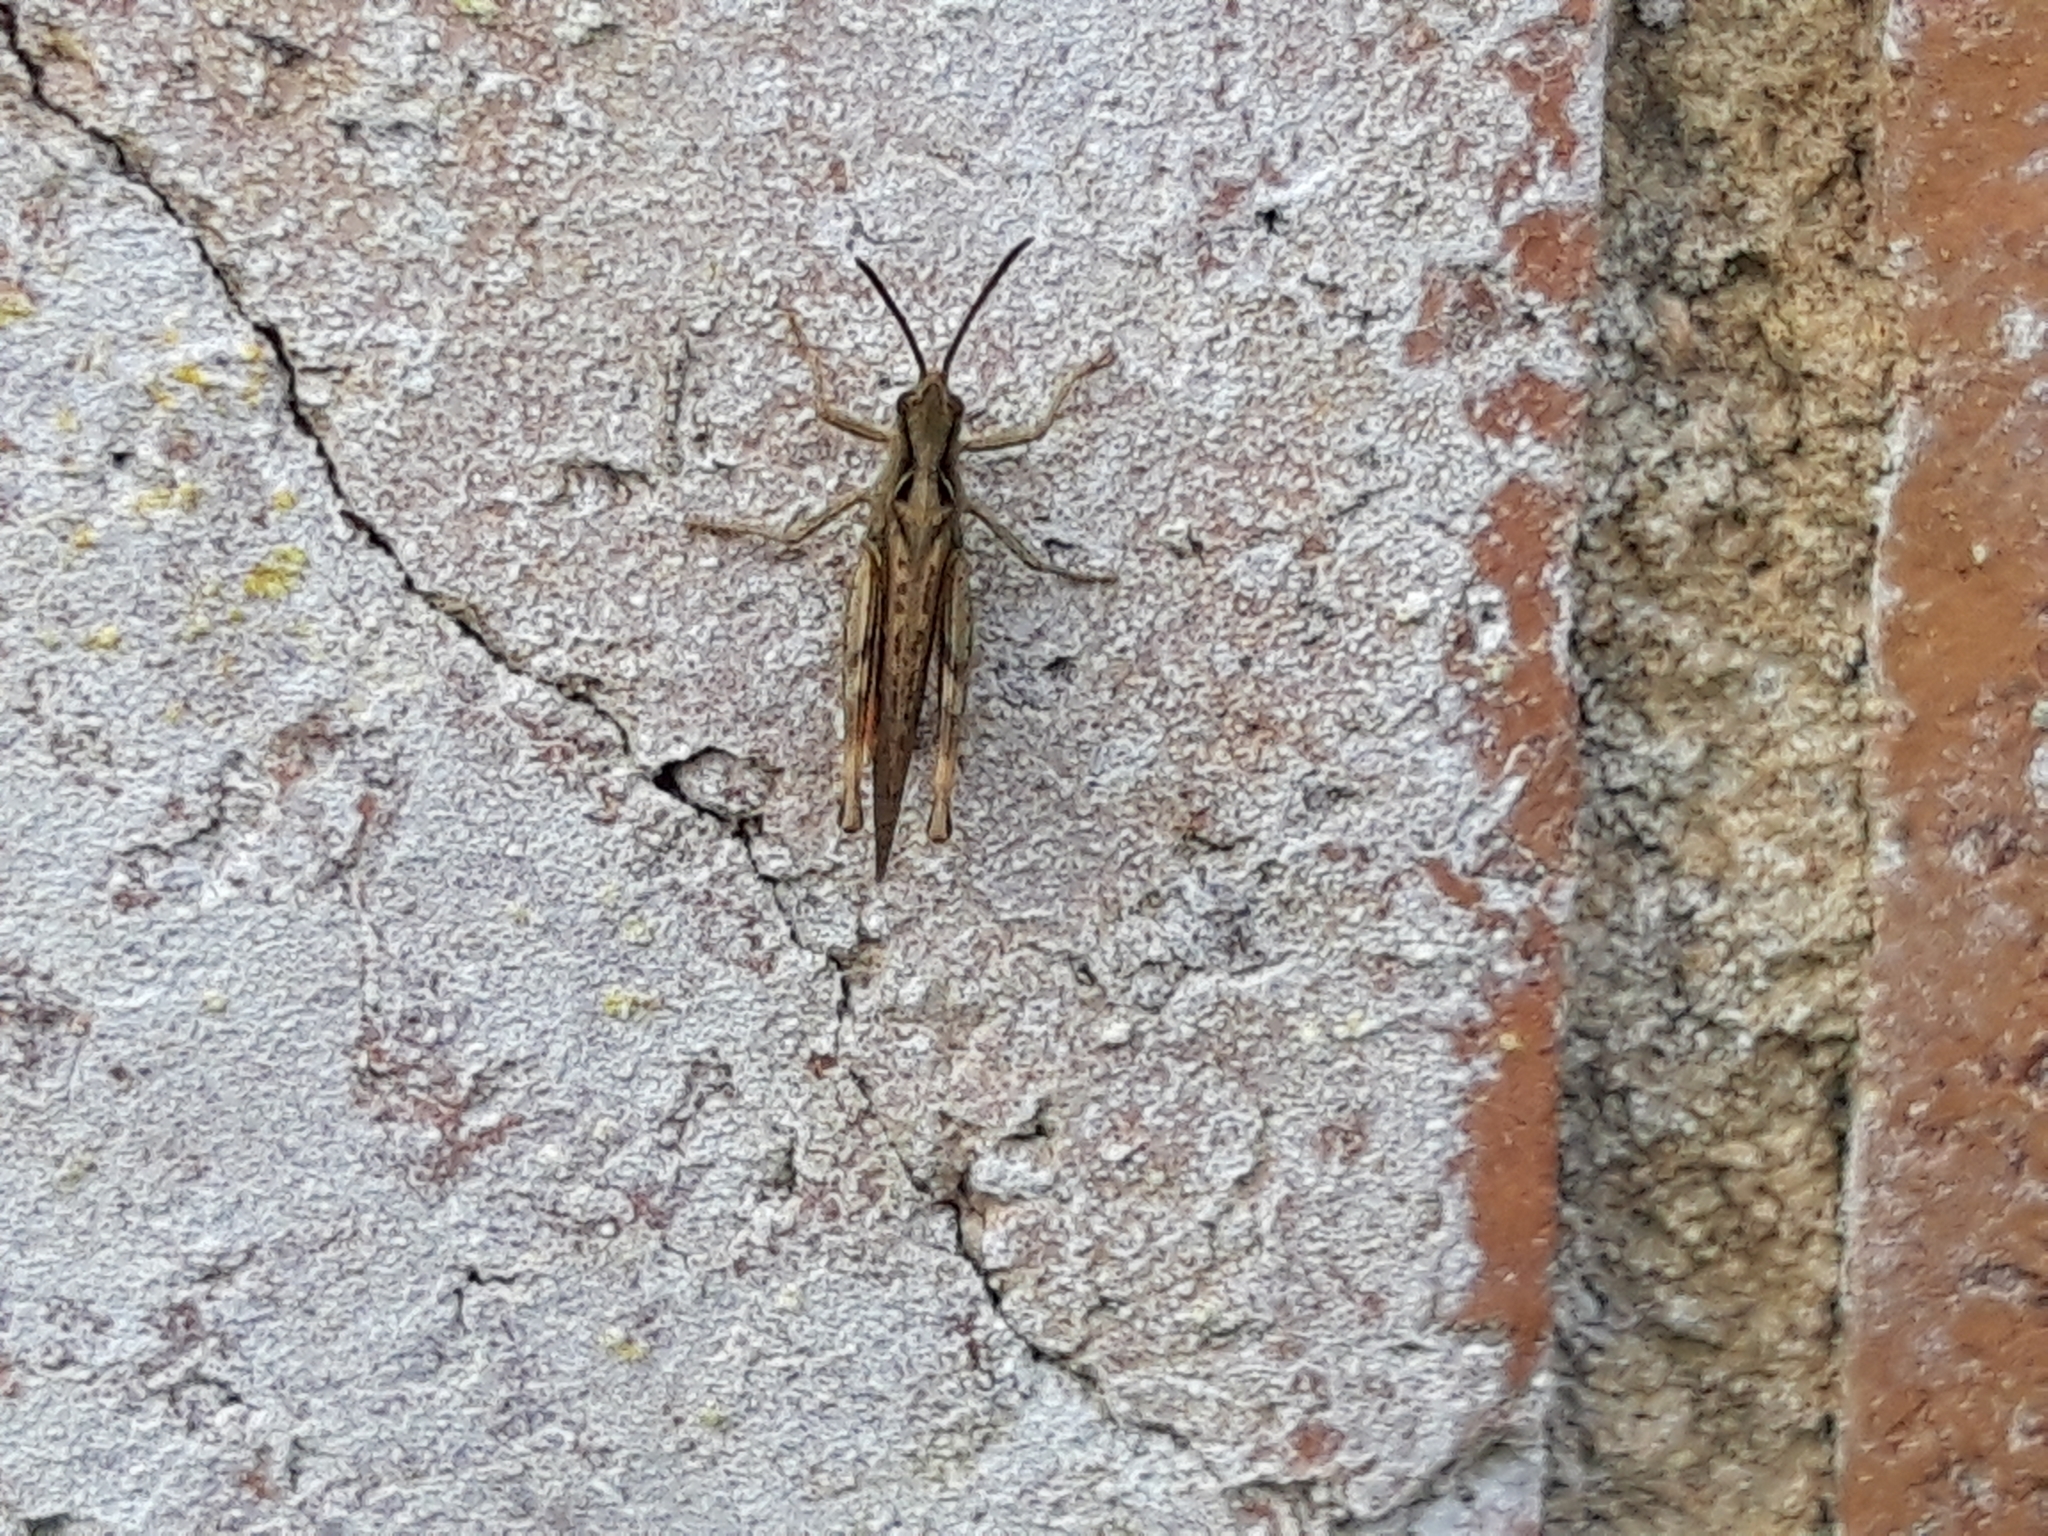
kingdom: Animalia
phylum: Arthropoda
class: Insecta
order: Orthoptera
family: Acrididae
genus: Chorthippus
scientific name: Chorthippus brunneus
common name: Field grasshopper
